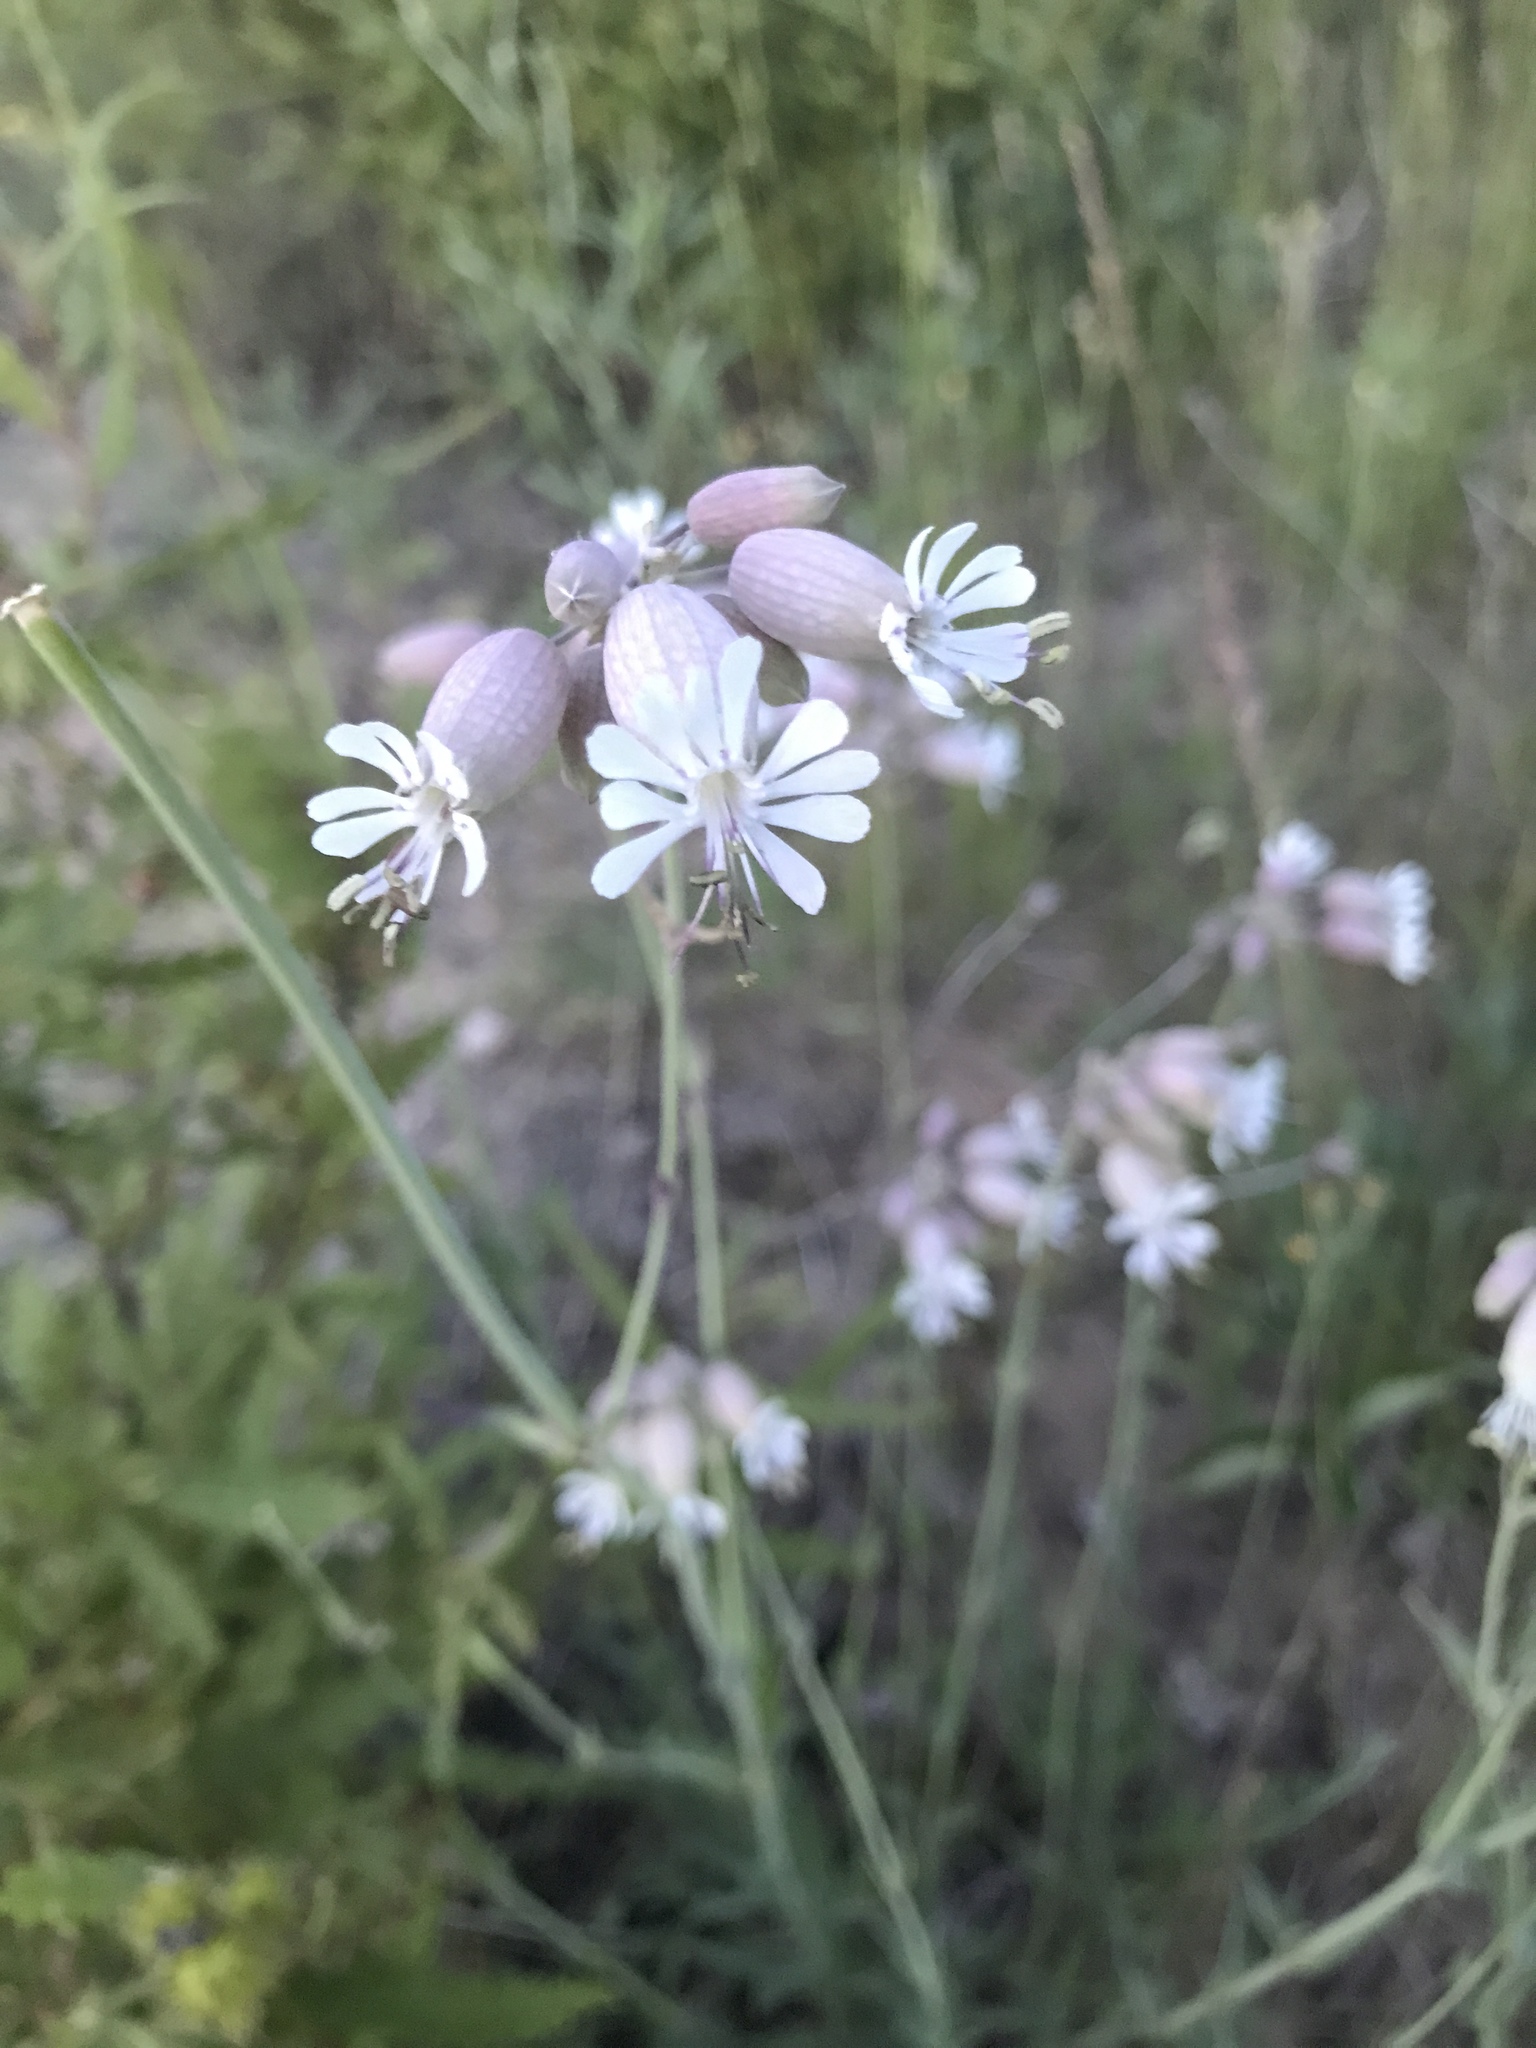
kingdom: Plantae
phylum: Tracheophyta
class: Magnoliopsida
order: Caryophyllales
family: Caryophyllaceae
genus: Silene
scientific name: Silene vulgaris
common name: Bladder campion
